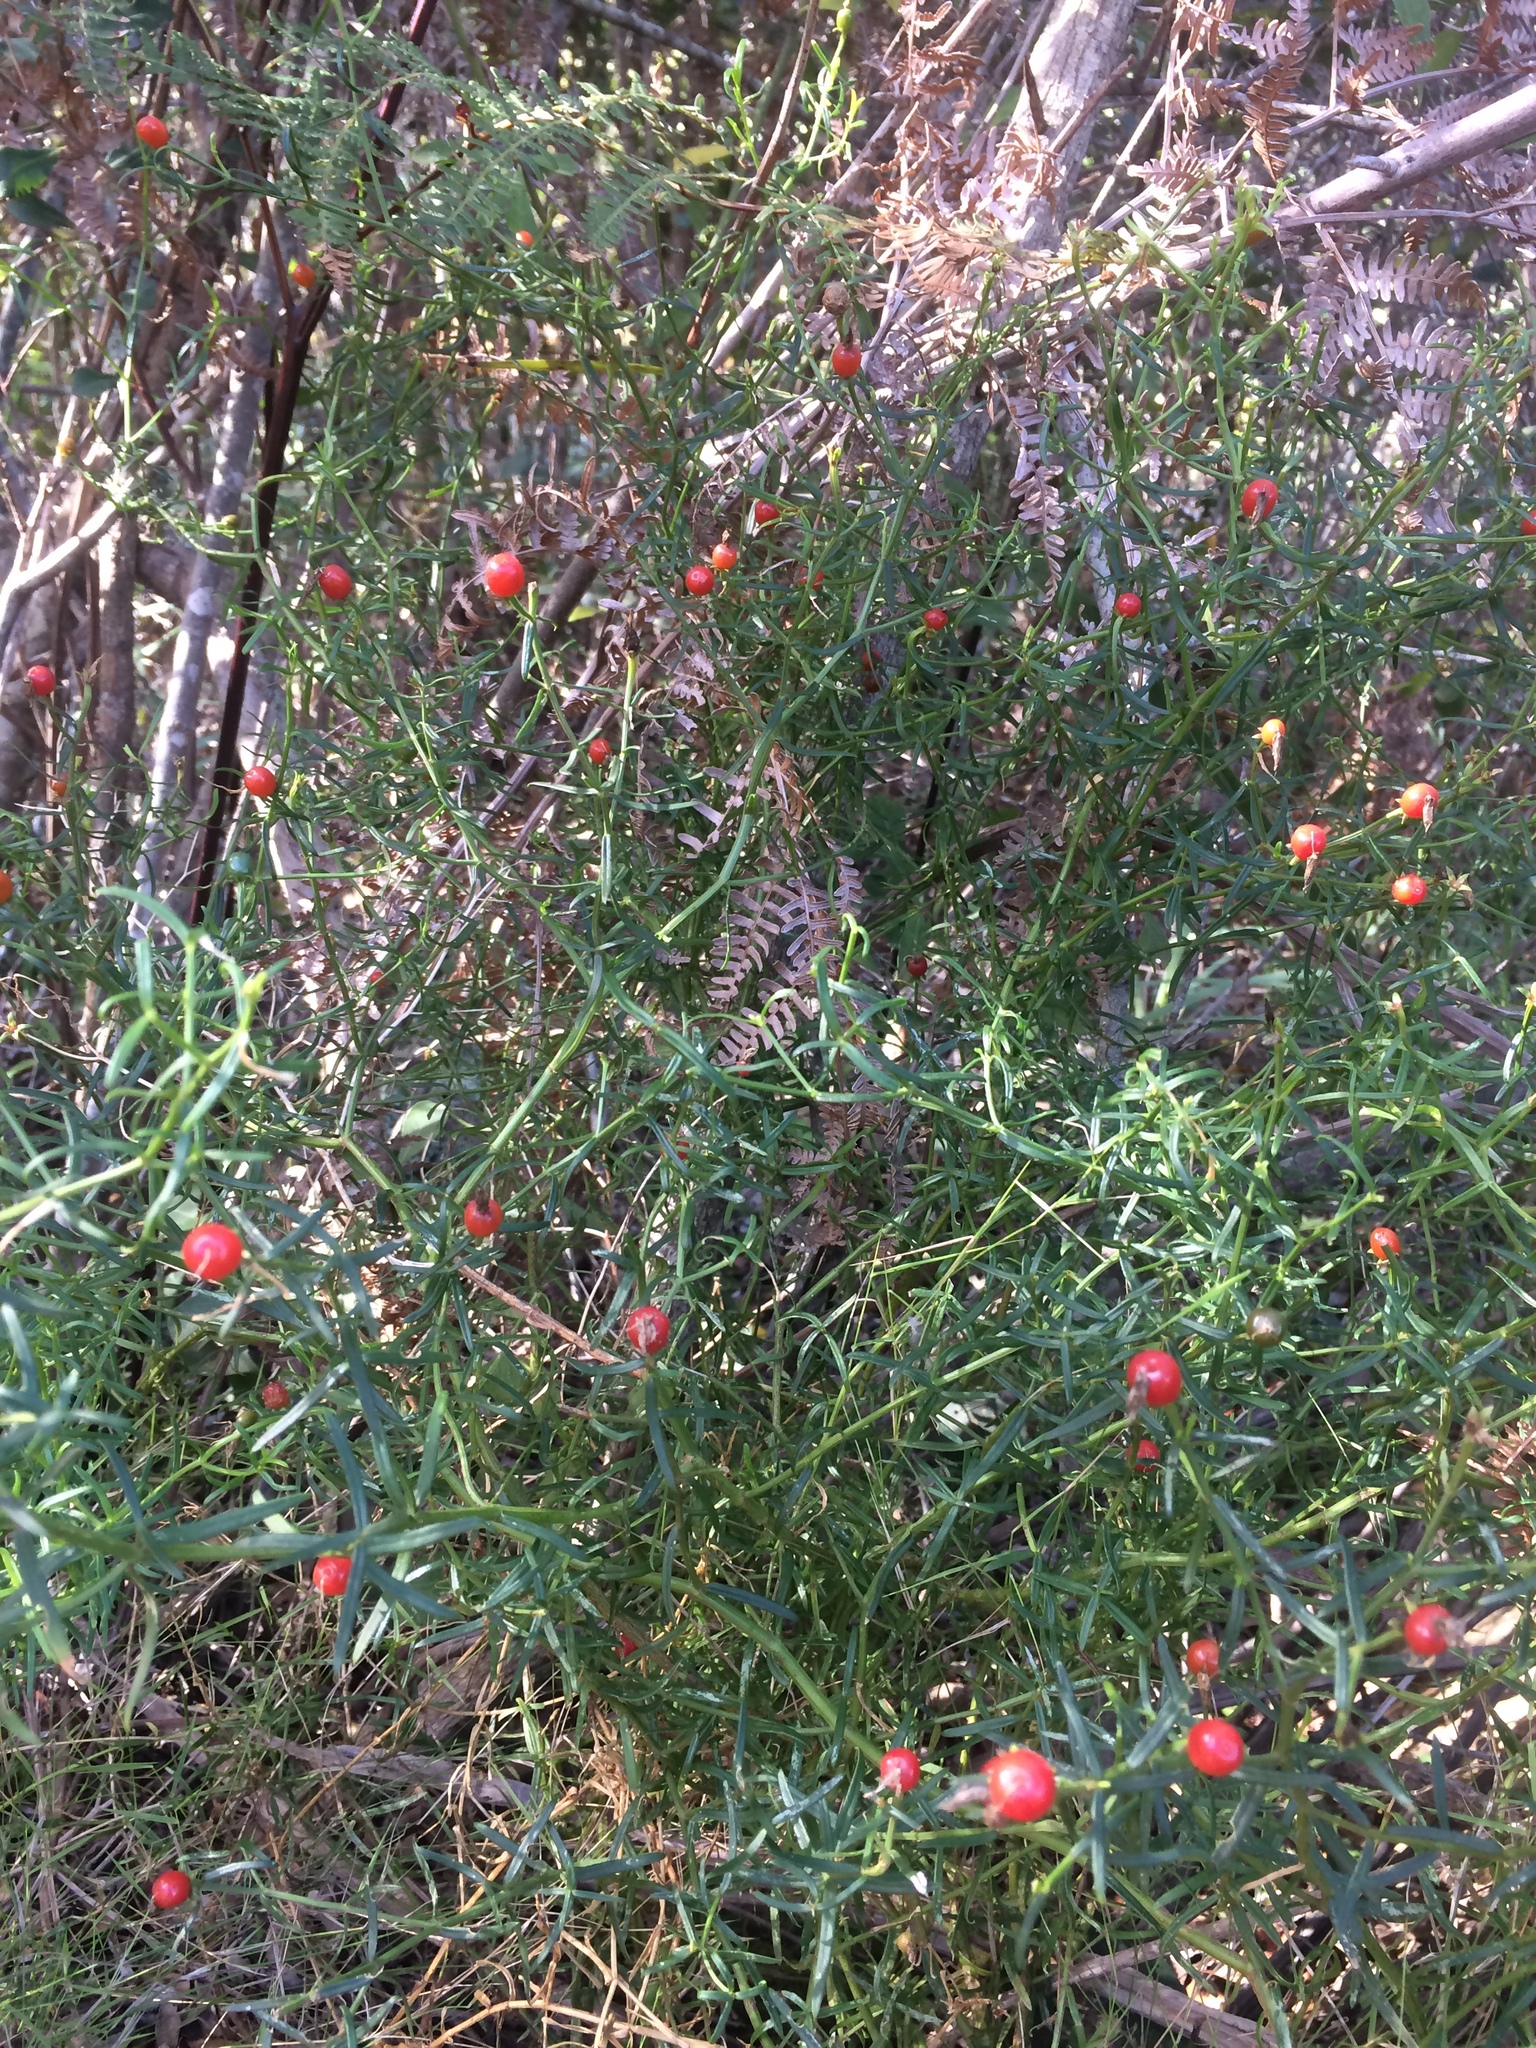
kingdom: Plantae
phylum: Tracheophyta
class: Magnoliopsida
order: Gentianales
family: Gentianaceae
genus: Chironia
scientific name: Chironia baccifera
